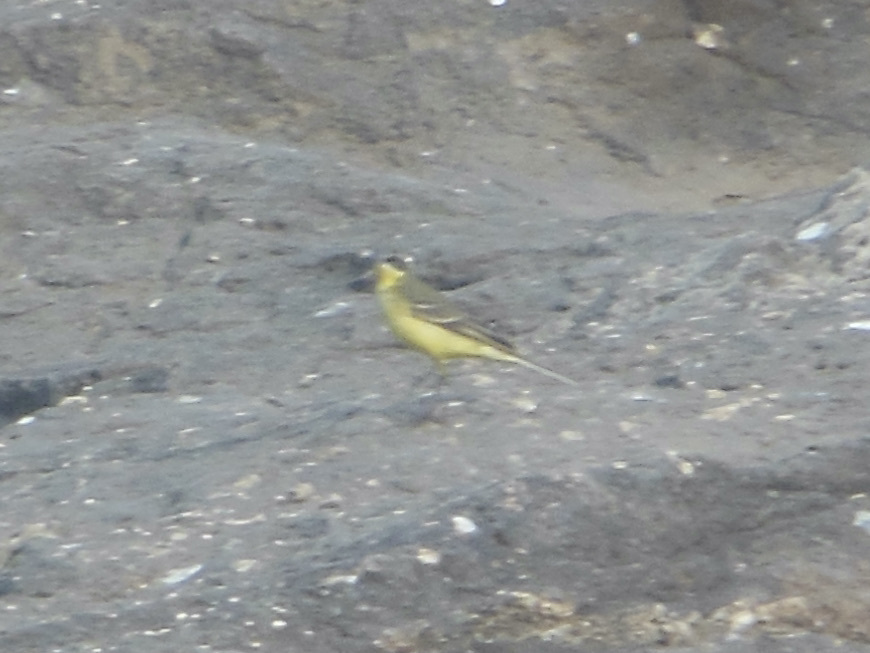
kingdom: Animalia
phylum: Chordata
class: Aves
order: Passeriformes
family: Motacillidae
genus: Motacilla
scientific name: Motacilla flava
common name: Western yellow wagtail
